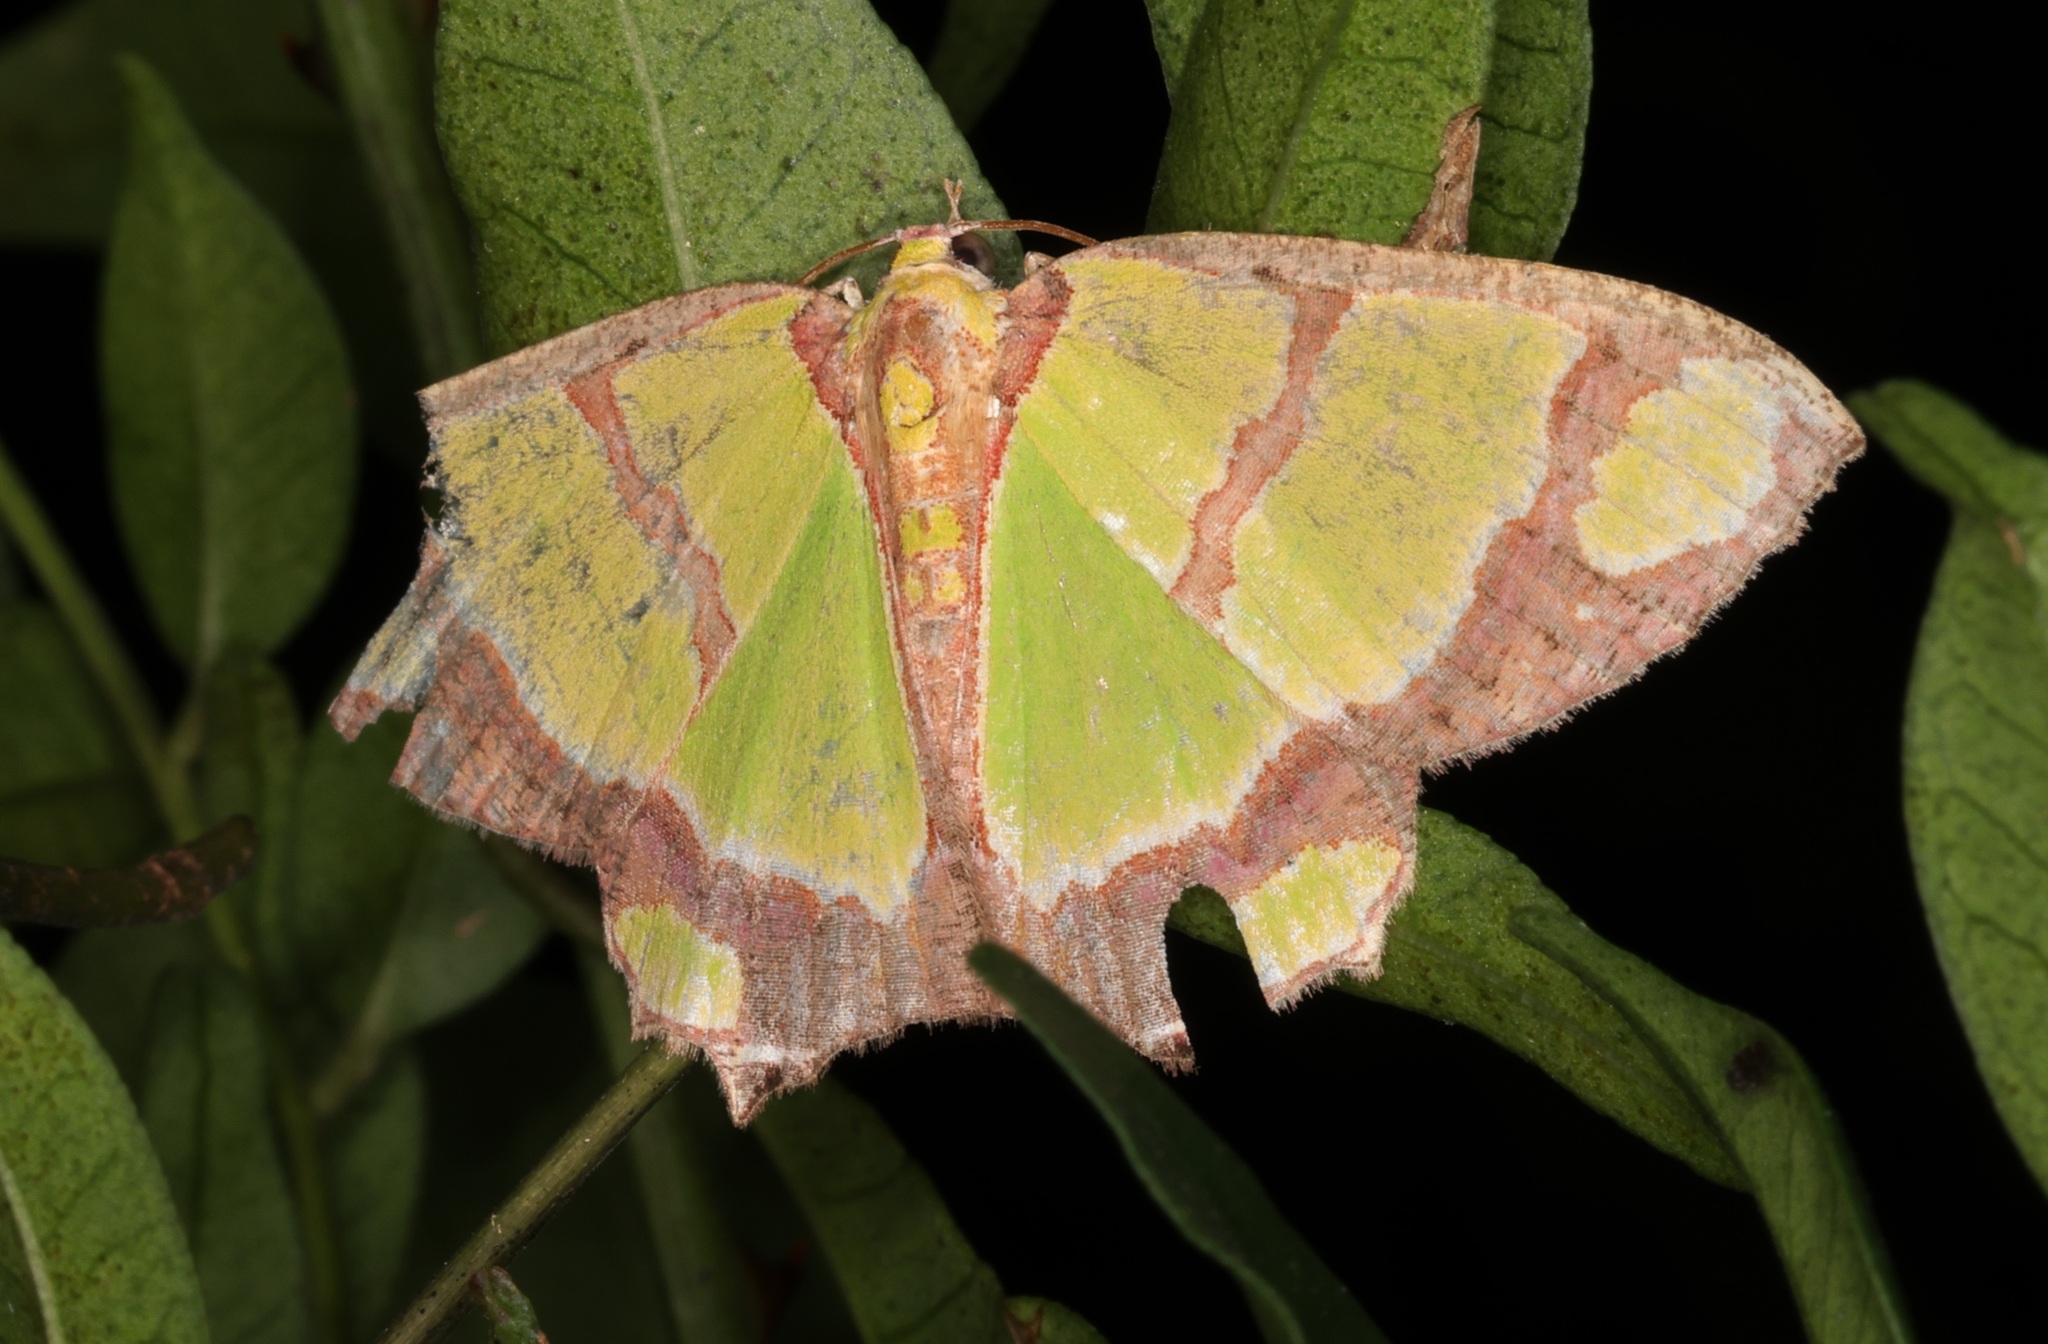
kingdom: Animalia
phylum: Arthropoda
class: Insecta
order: Lepidoptera
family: Geometridae
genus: Agathia
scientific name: Agathia carissima
